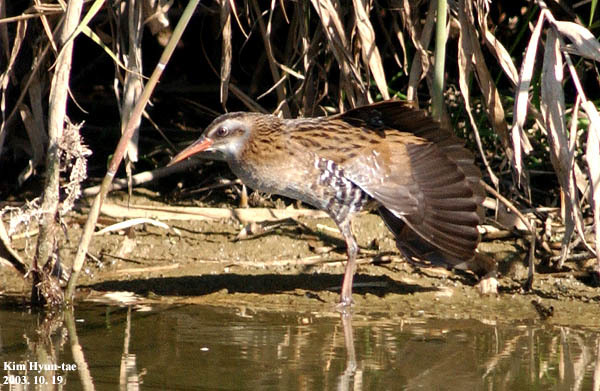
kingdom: Animalia
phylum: Chordata
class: Aves
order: Gruiformes
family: Rallidae
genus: Rallus
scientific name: Rallus indicus
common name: Brown-cheeked rail
